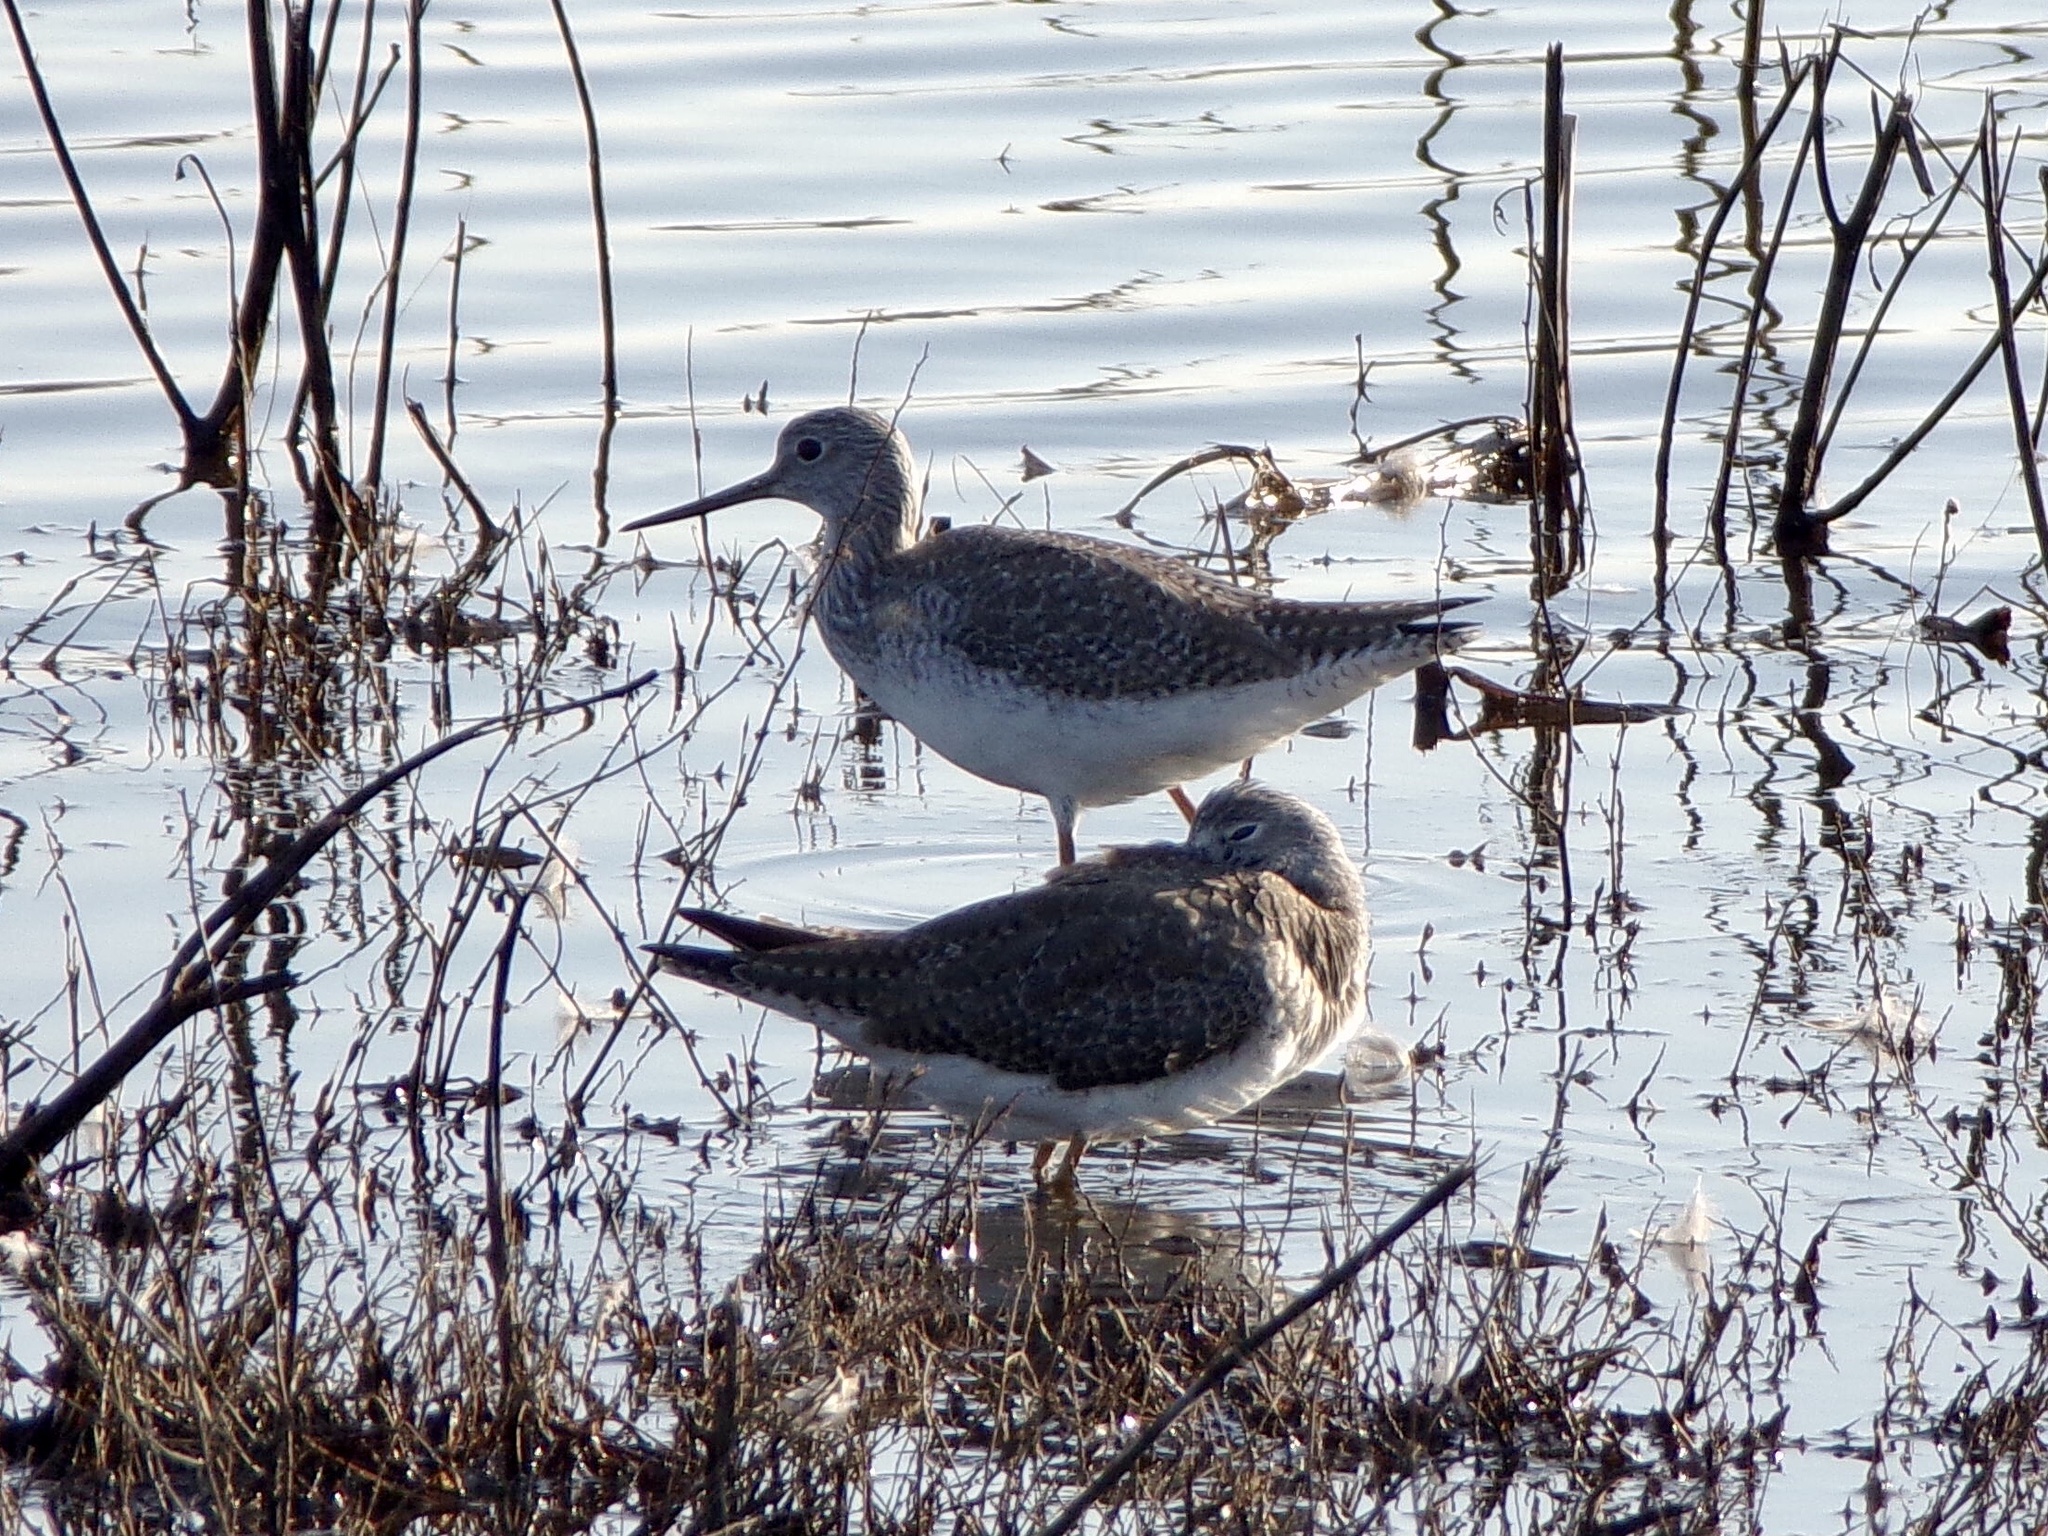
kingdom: Animalia
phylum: Chordata
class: Aves
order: Charadriiformes
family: Scolopacidae
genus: Tringa
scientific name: Tringa melanoleuca
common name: Greater yellowlegs
